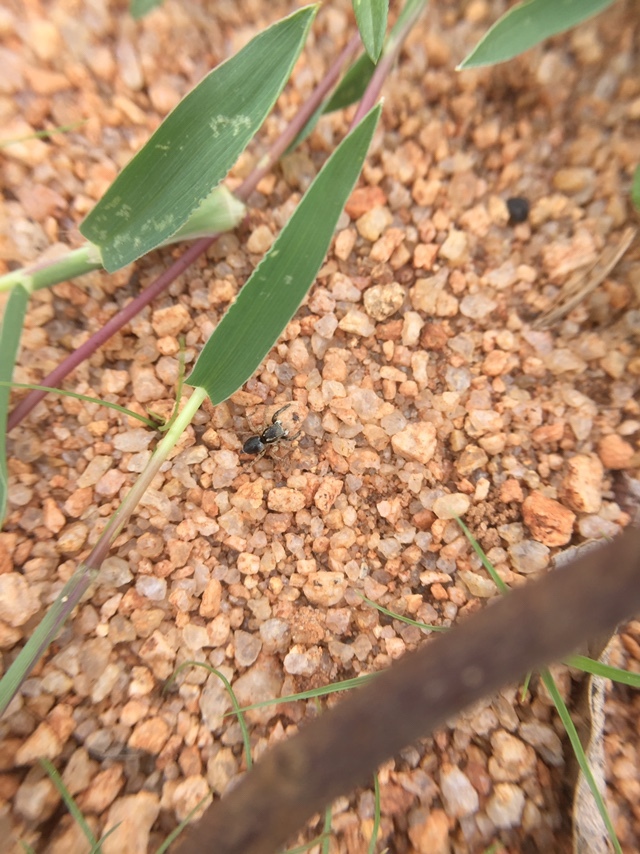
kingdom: Animalia
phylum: Arthropoda
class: Arachnida
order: Araneae
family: Salticidae
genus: Stenaelurillus
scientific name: Stenaelurillus sarojinae
